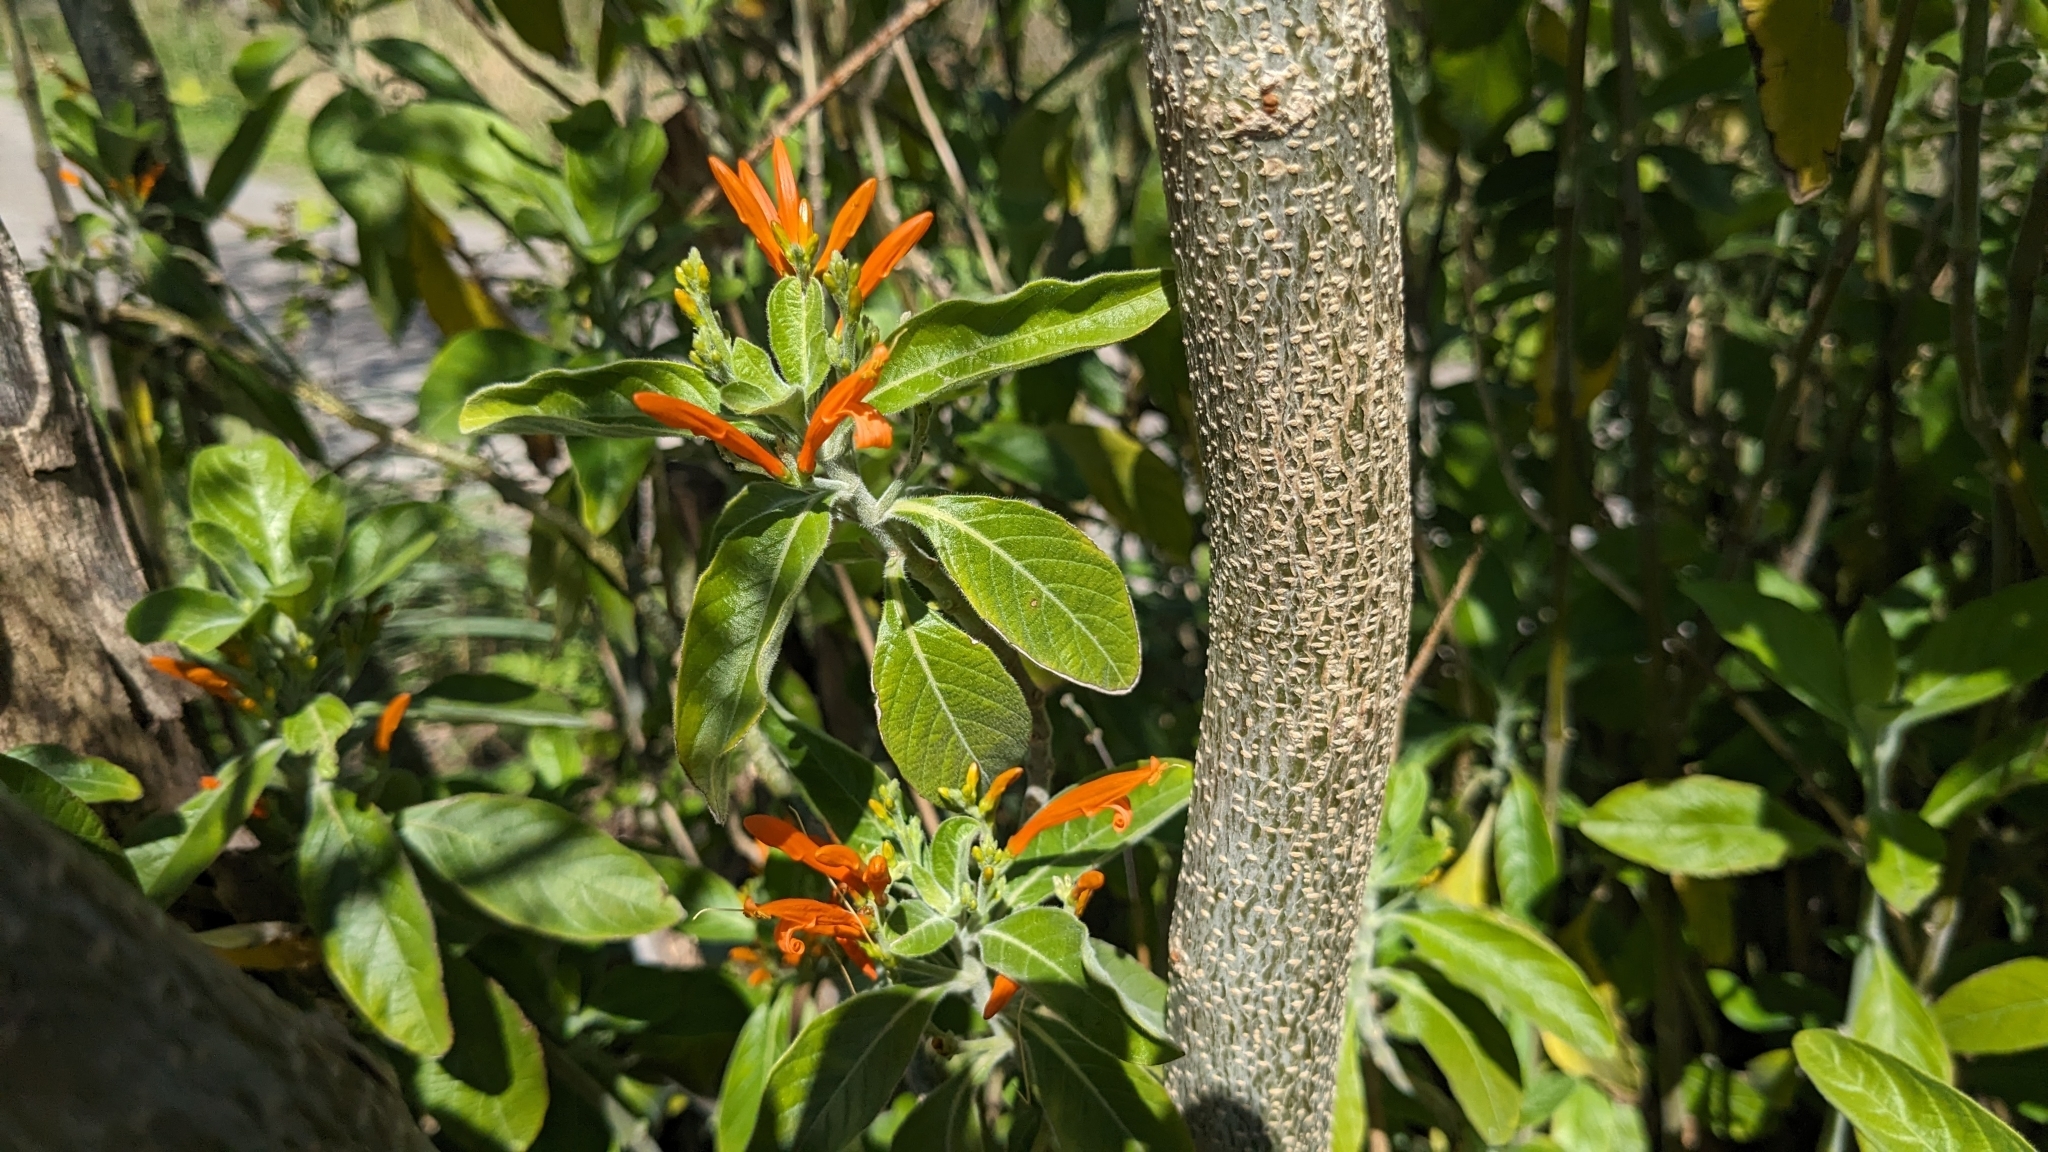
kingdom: Plantae
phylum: Tracheophyta
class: Magnoliopsida
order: Lamiales
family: Acanthaceae
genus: Justicia
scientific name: Justicia spicigera
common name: Mohintli
